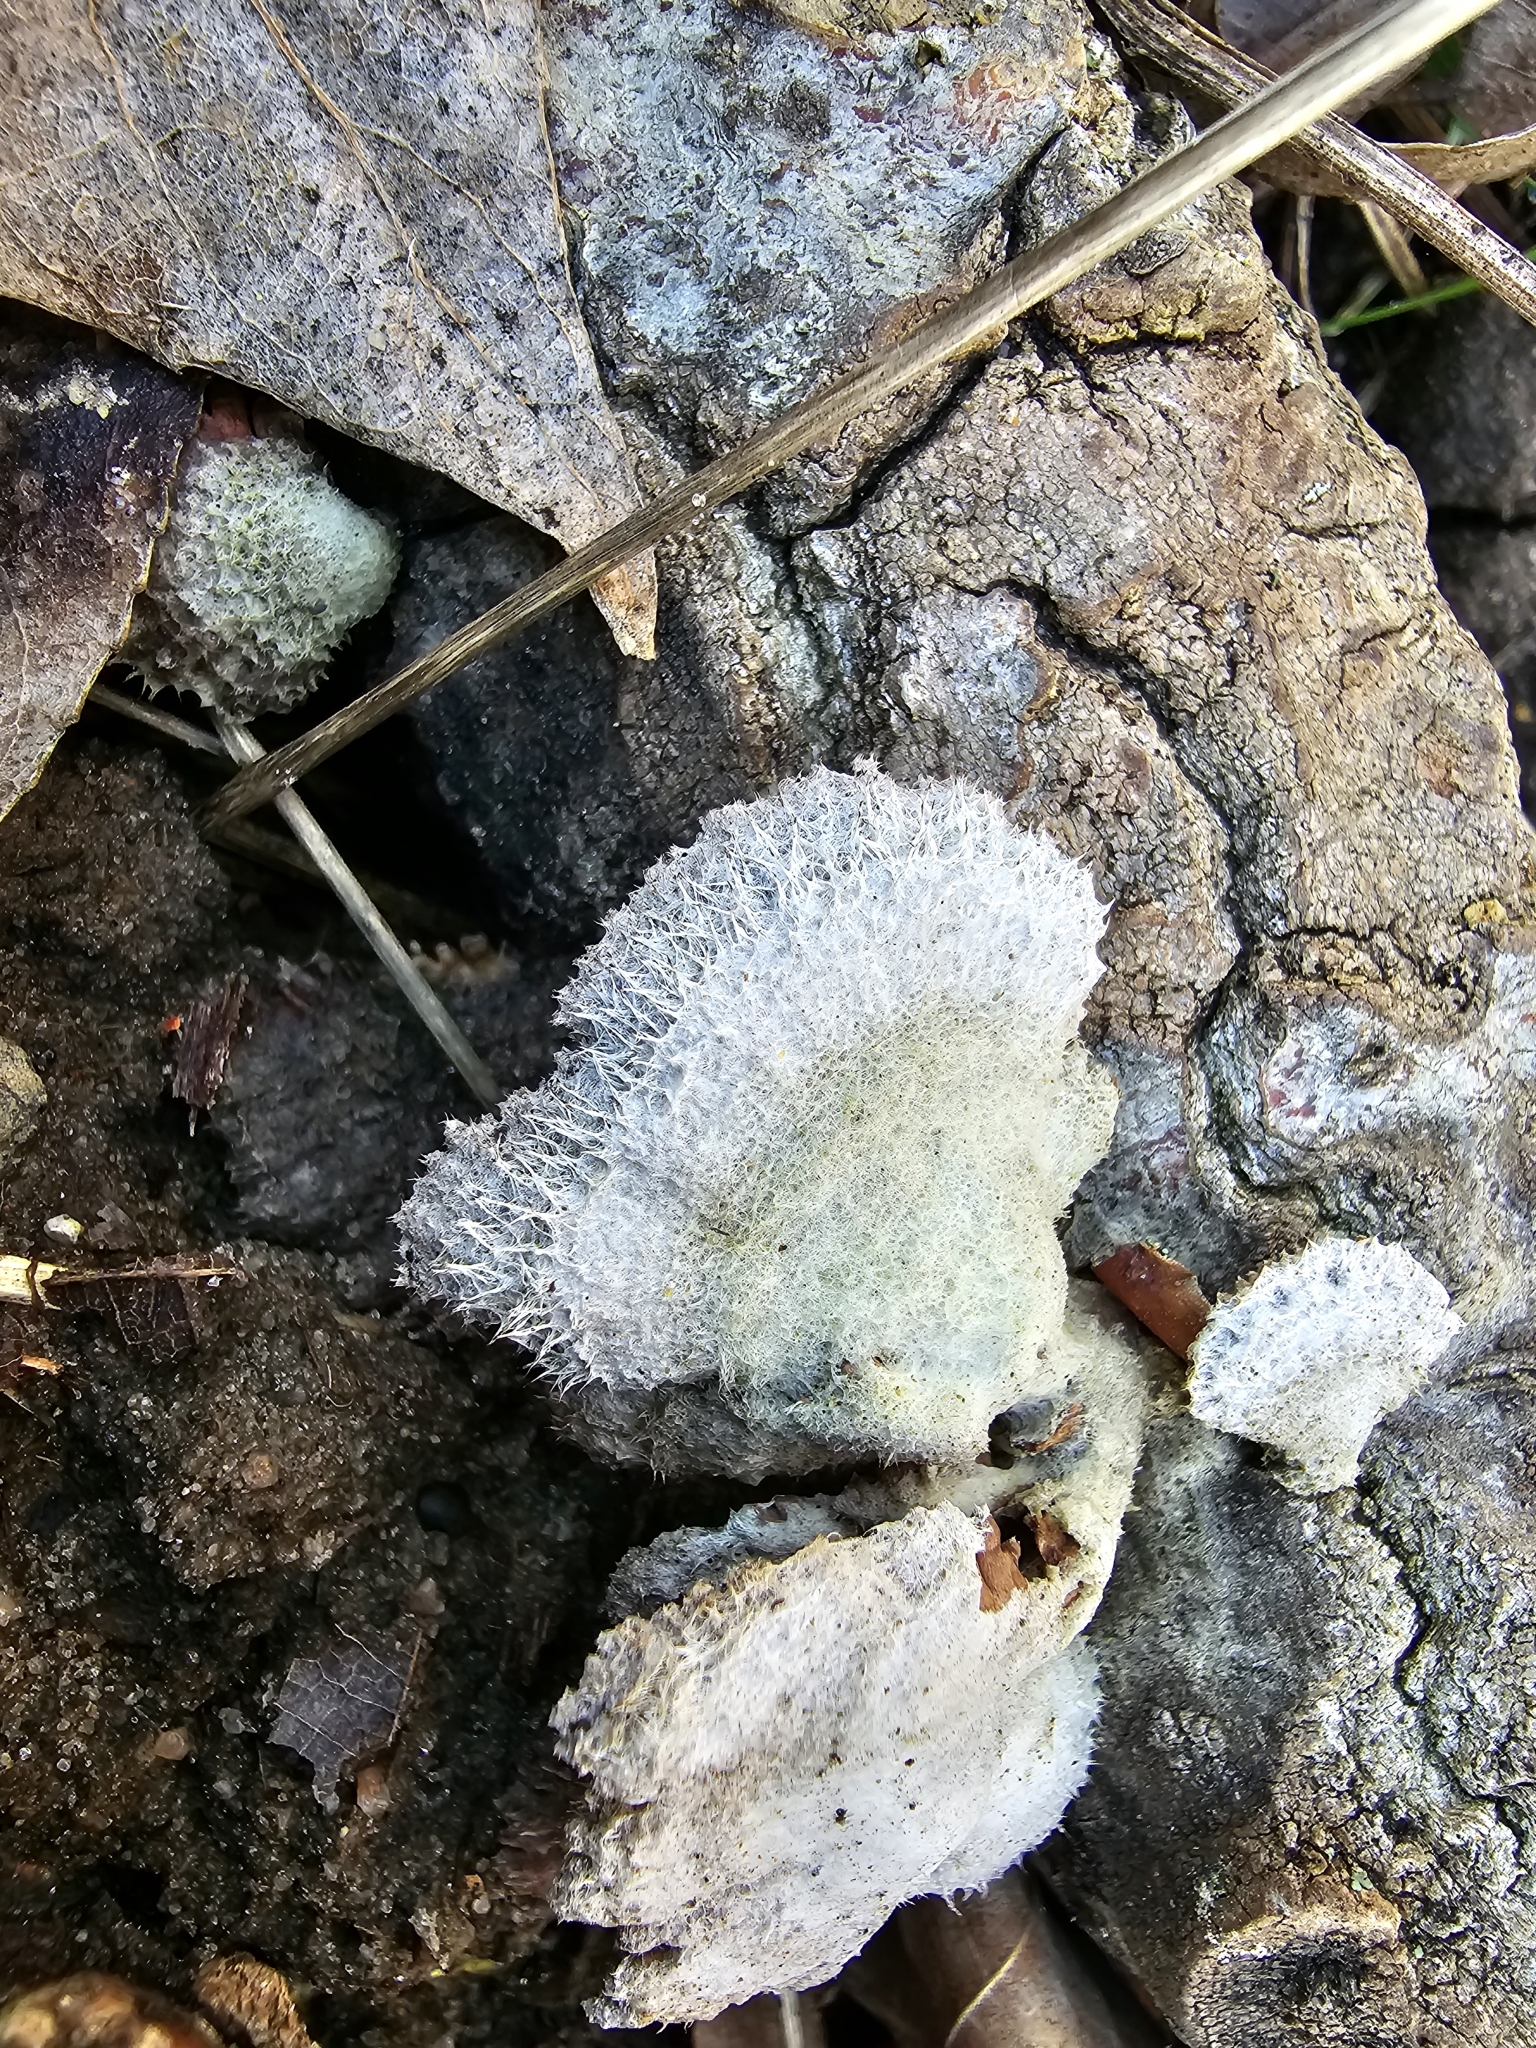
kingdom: Fungi
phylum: Basidiomycota
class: Agaricomycetes
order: Agaricales
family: Schizophyllaceae
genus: Schizophyllum
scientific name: Schizophyllum commune
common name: Common porecrust
